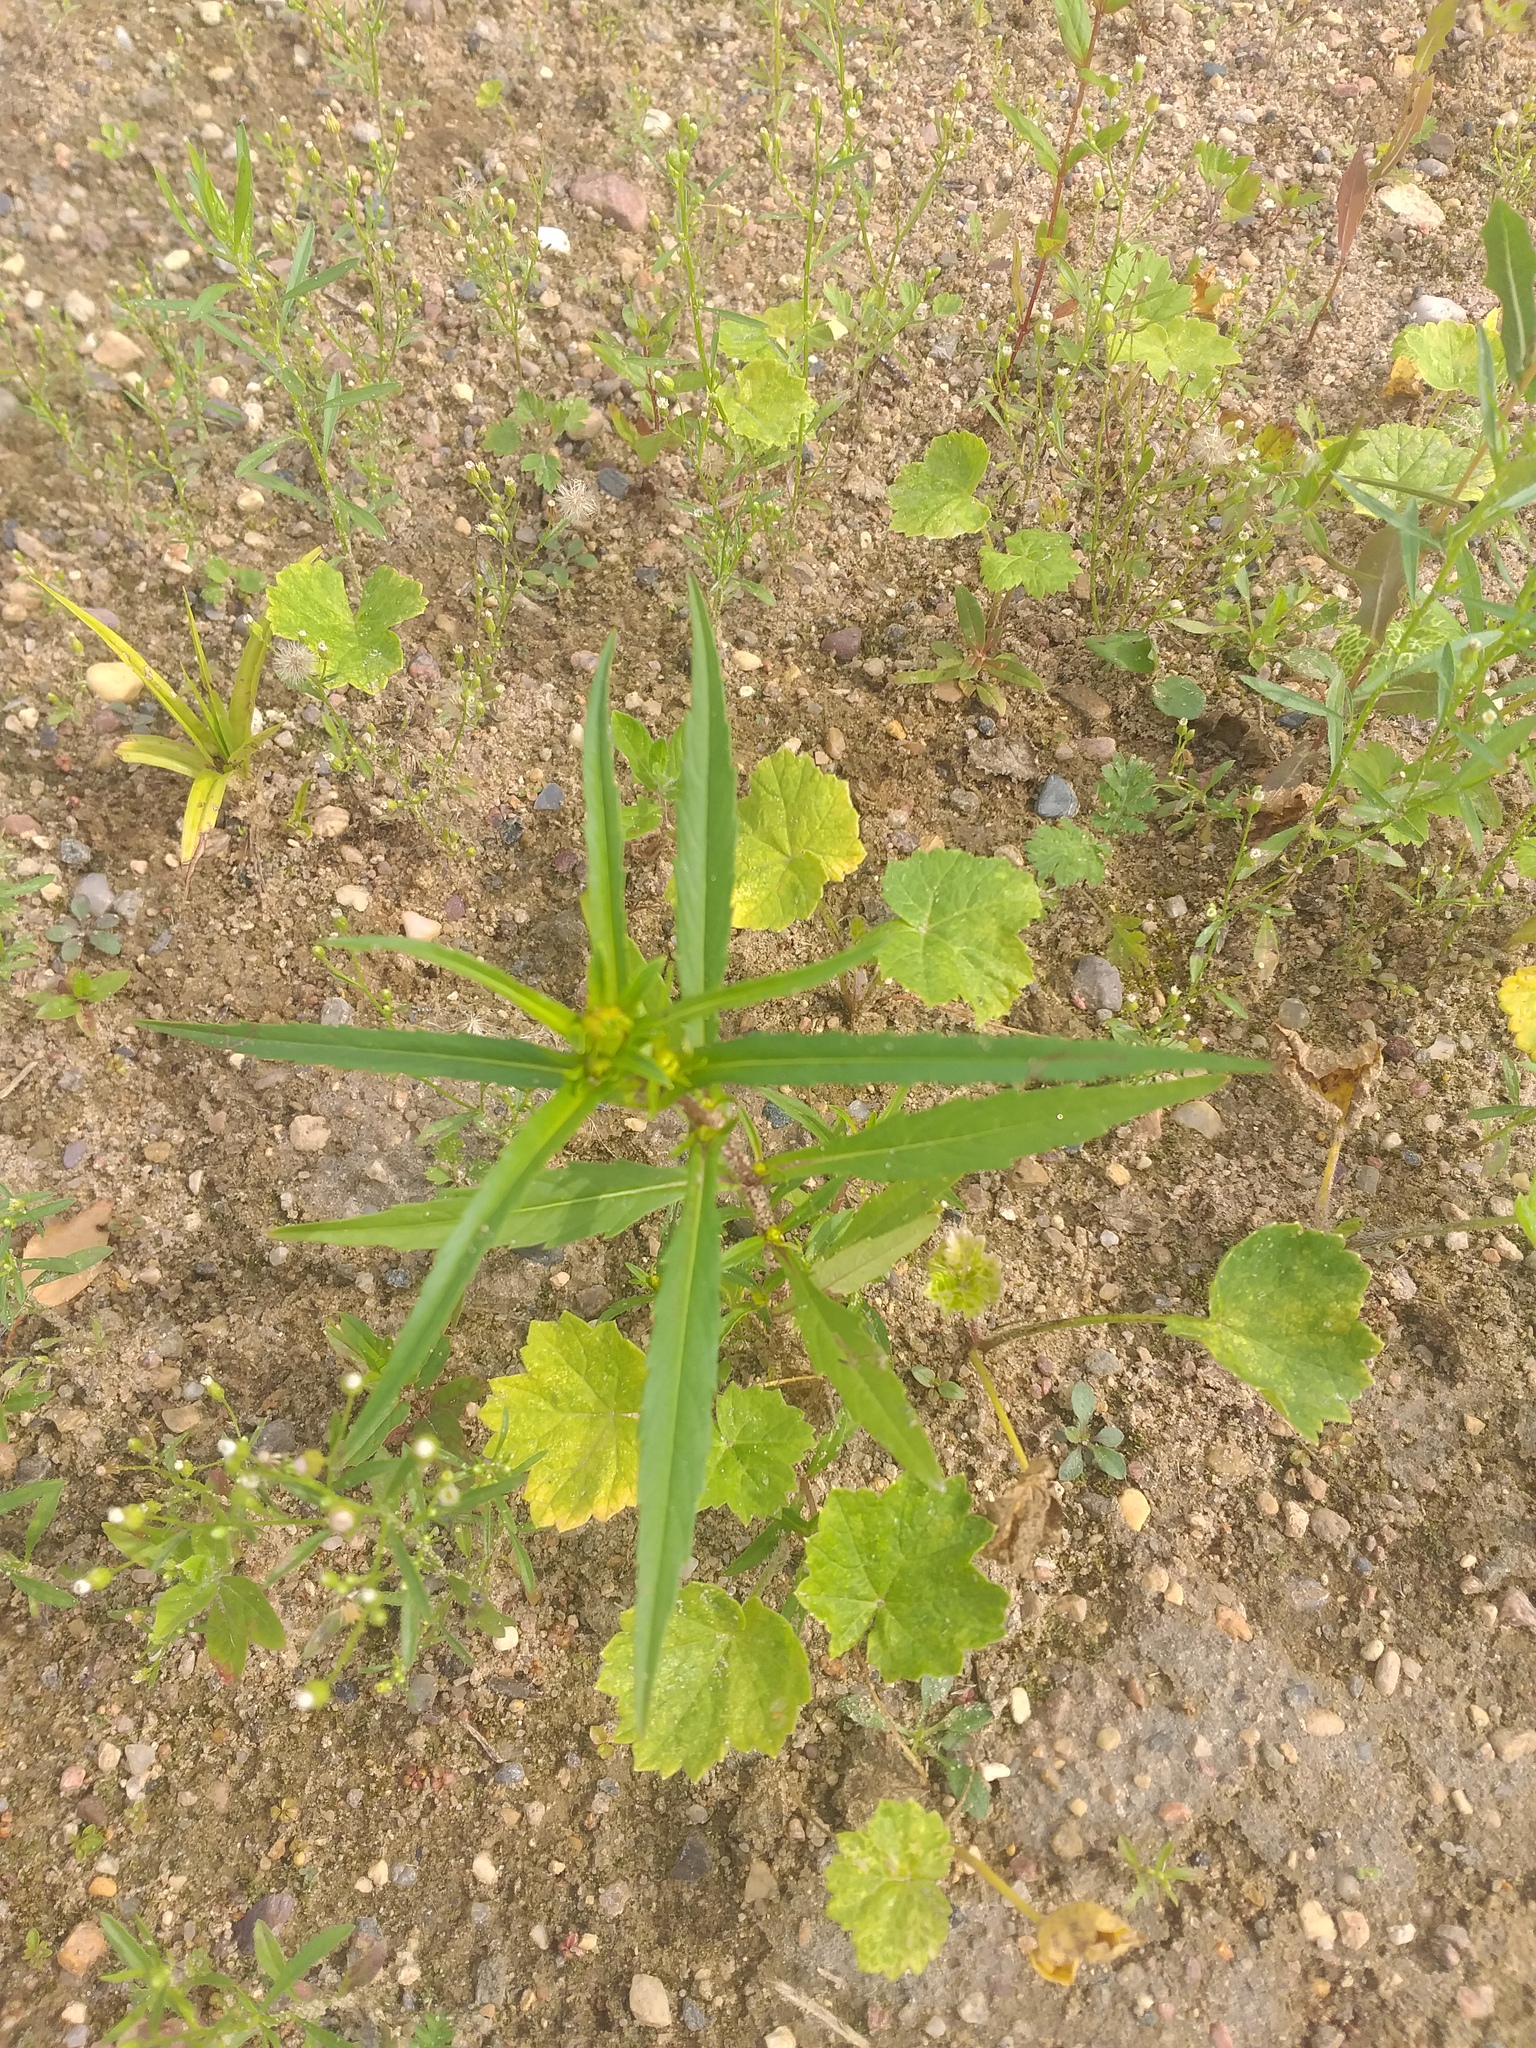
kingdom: Plantae
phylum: Tracheophyta
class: Magnoliopsida
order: Asterales
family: Asteraceae
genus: Bidens
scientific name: Bidens cernua
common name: Nodding bur-marigold
